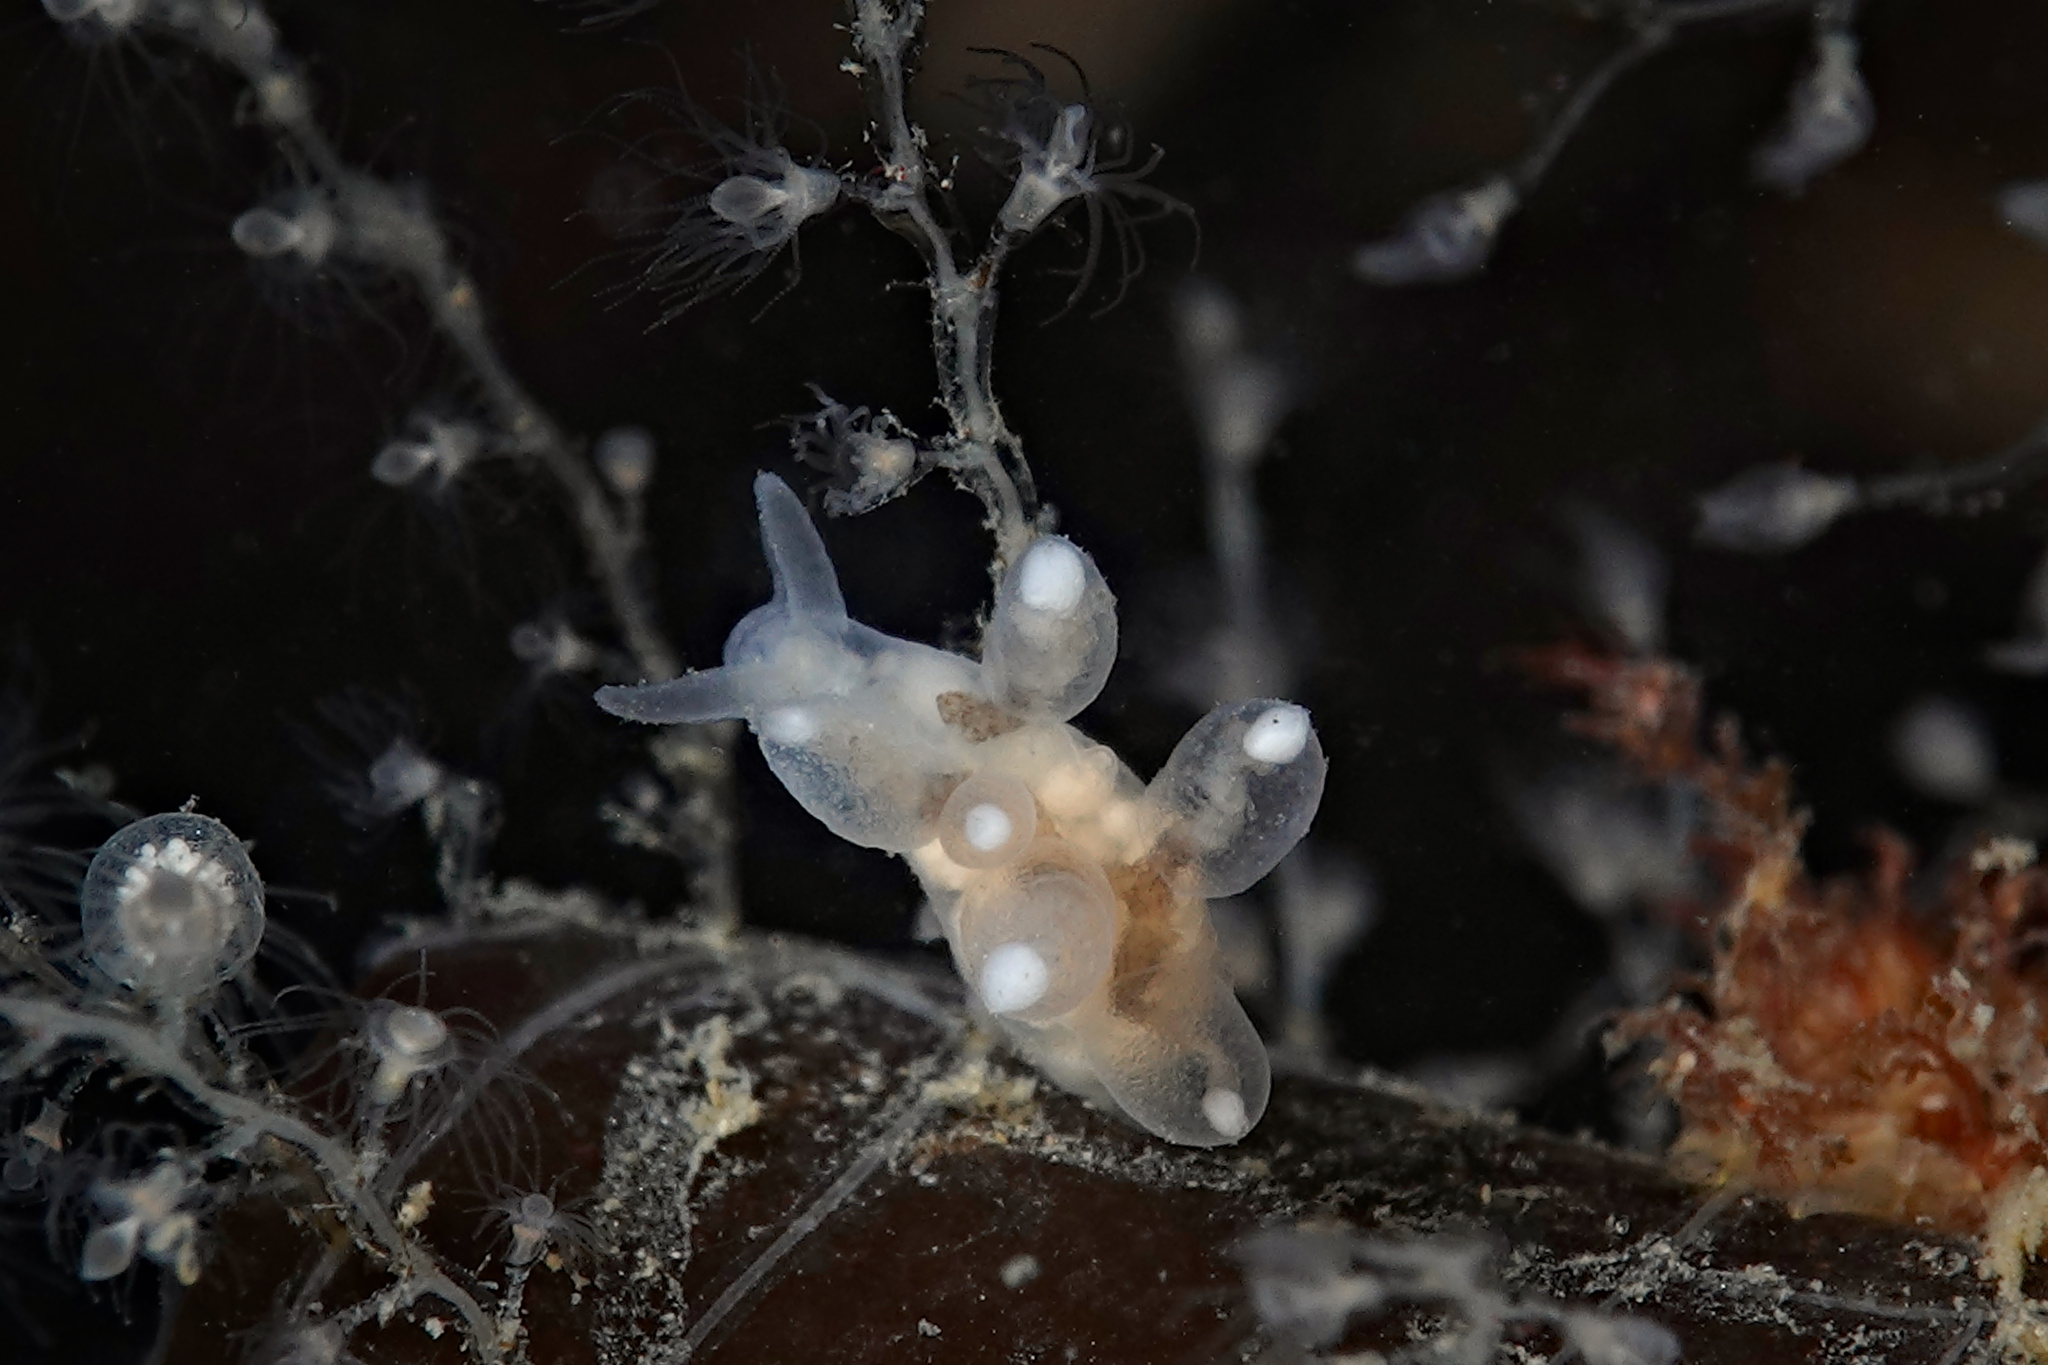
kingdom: Animalia
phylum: Mollusca
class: Gastropoda
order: Nudibranchia
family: Tergipedidae
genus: Tergipes
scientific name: Tergipes tergipes
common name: Johnston's balloon eolis
